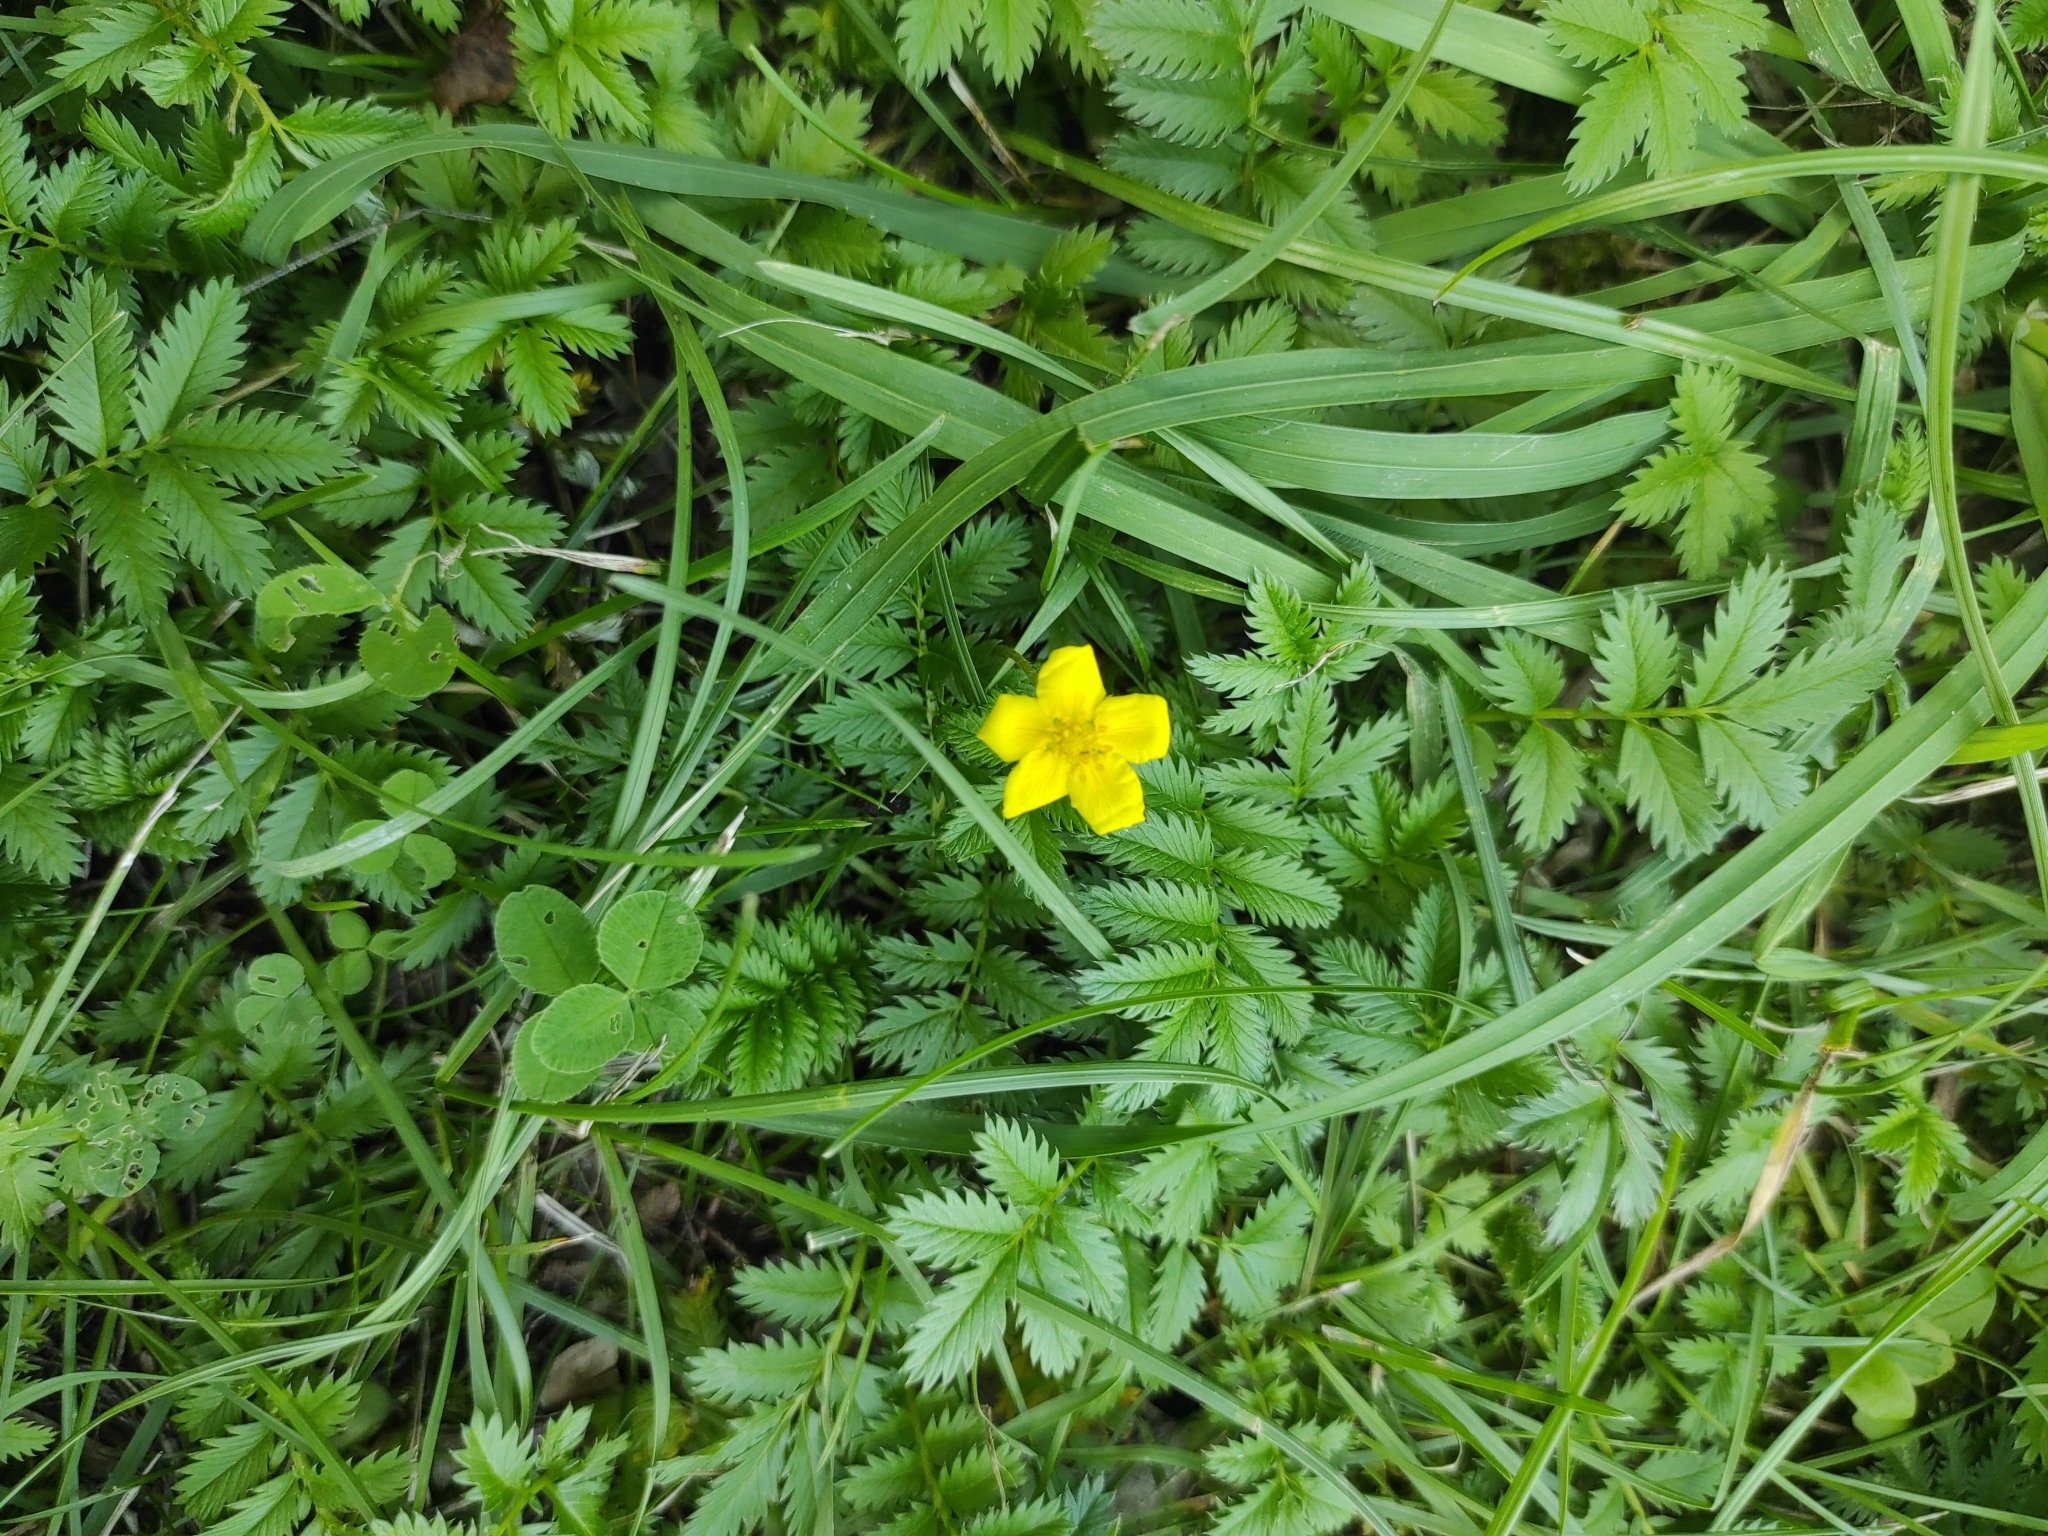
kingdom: Plantae
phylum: Tracheophyta
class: Magnoliopsida
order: Rosales
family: Rosaceae
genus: Argentina
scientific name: Argentina anserina
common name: Common silverweed
